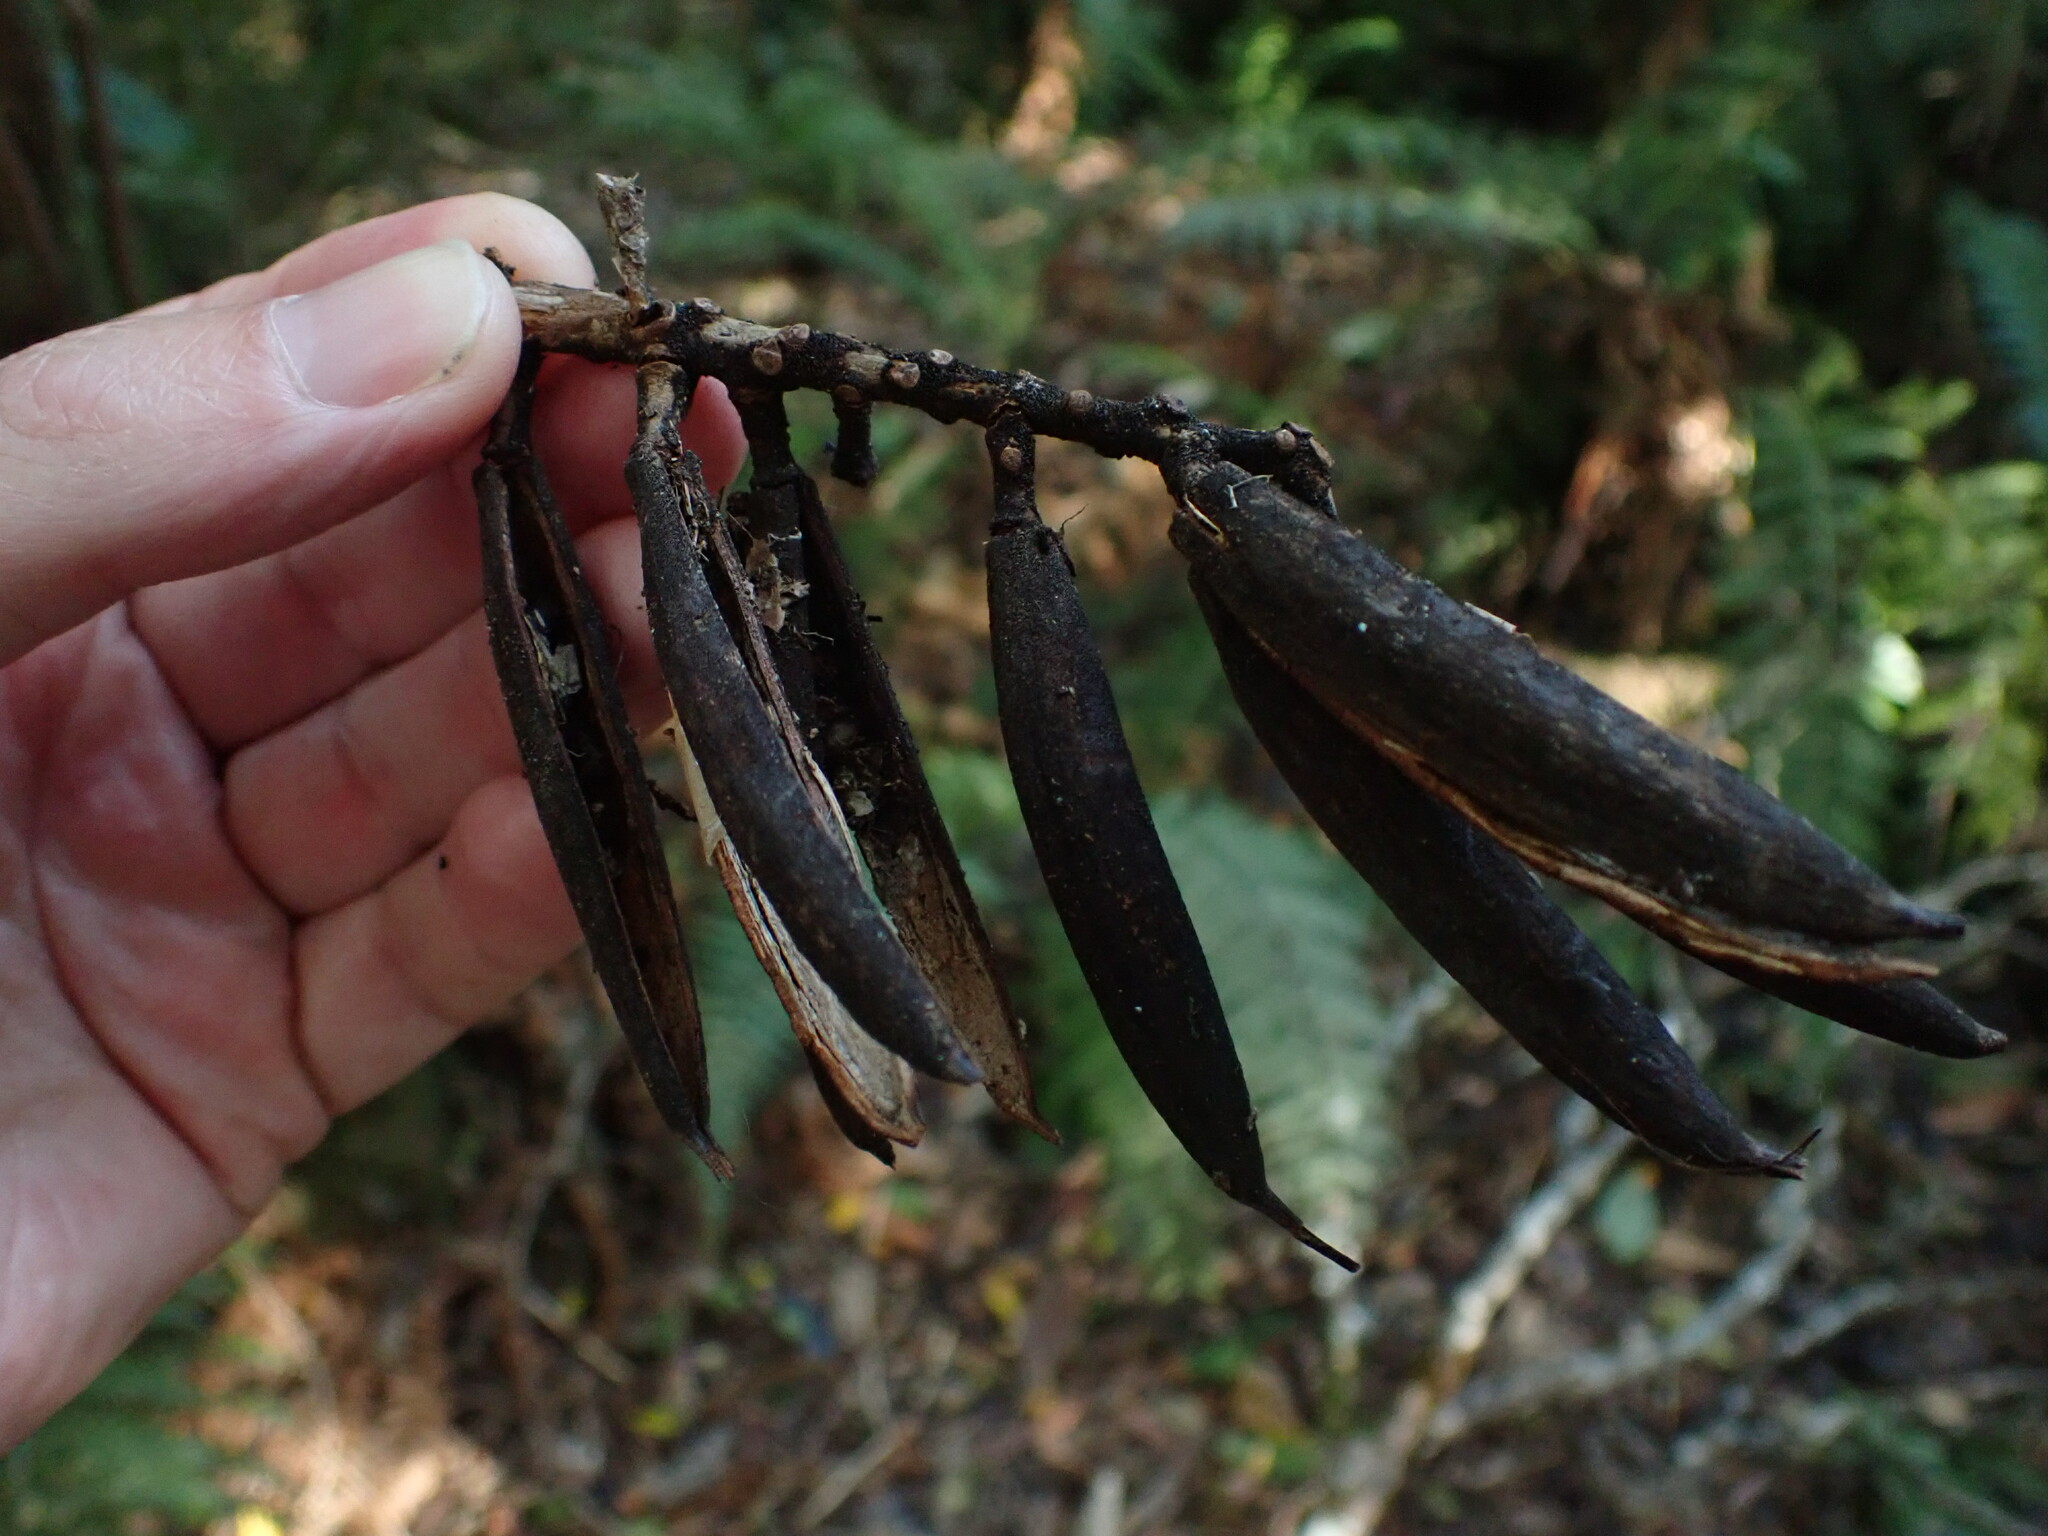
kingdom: Plantae
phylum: Tracheophyta
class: Magnoliopsida
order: Proteales
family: Proteaceae
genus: Knightia
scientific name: Knightia excelsa
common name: New zealand-honeysuckle
